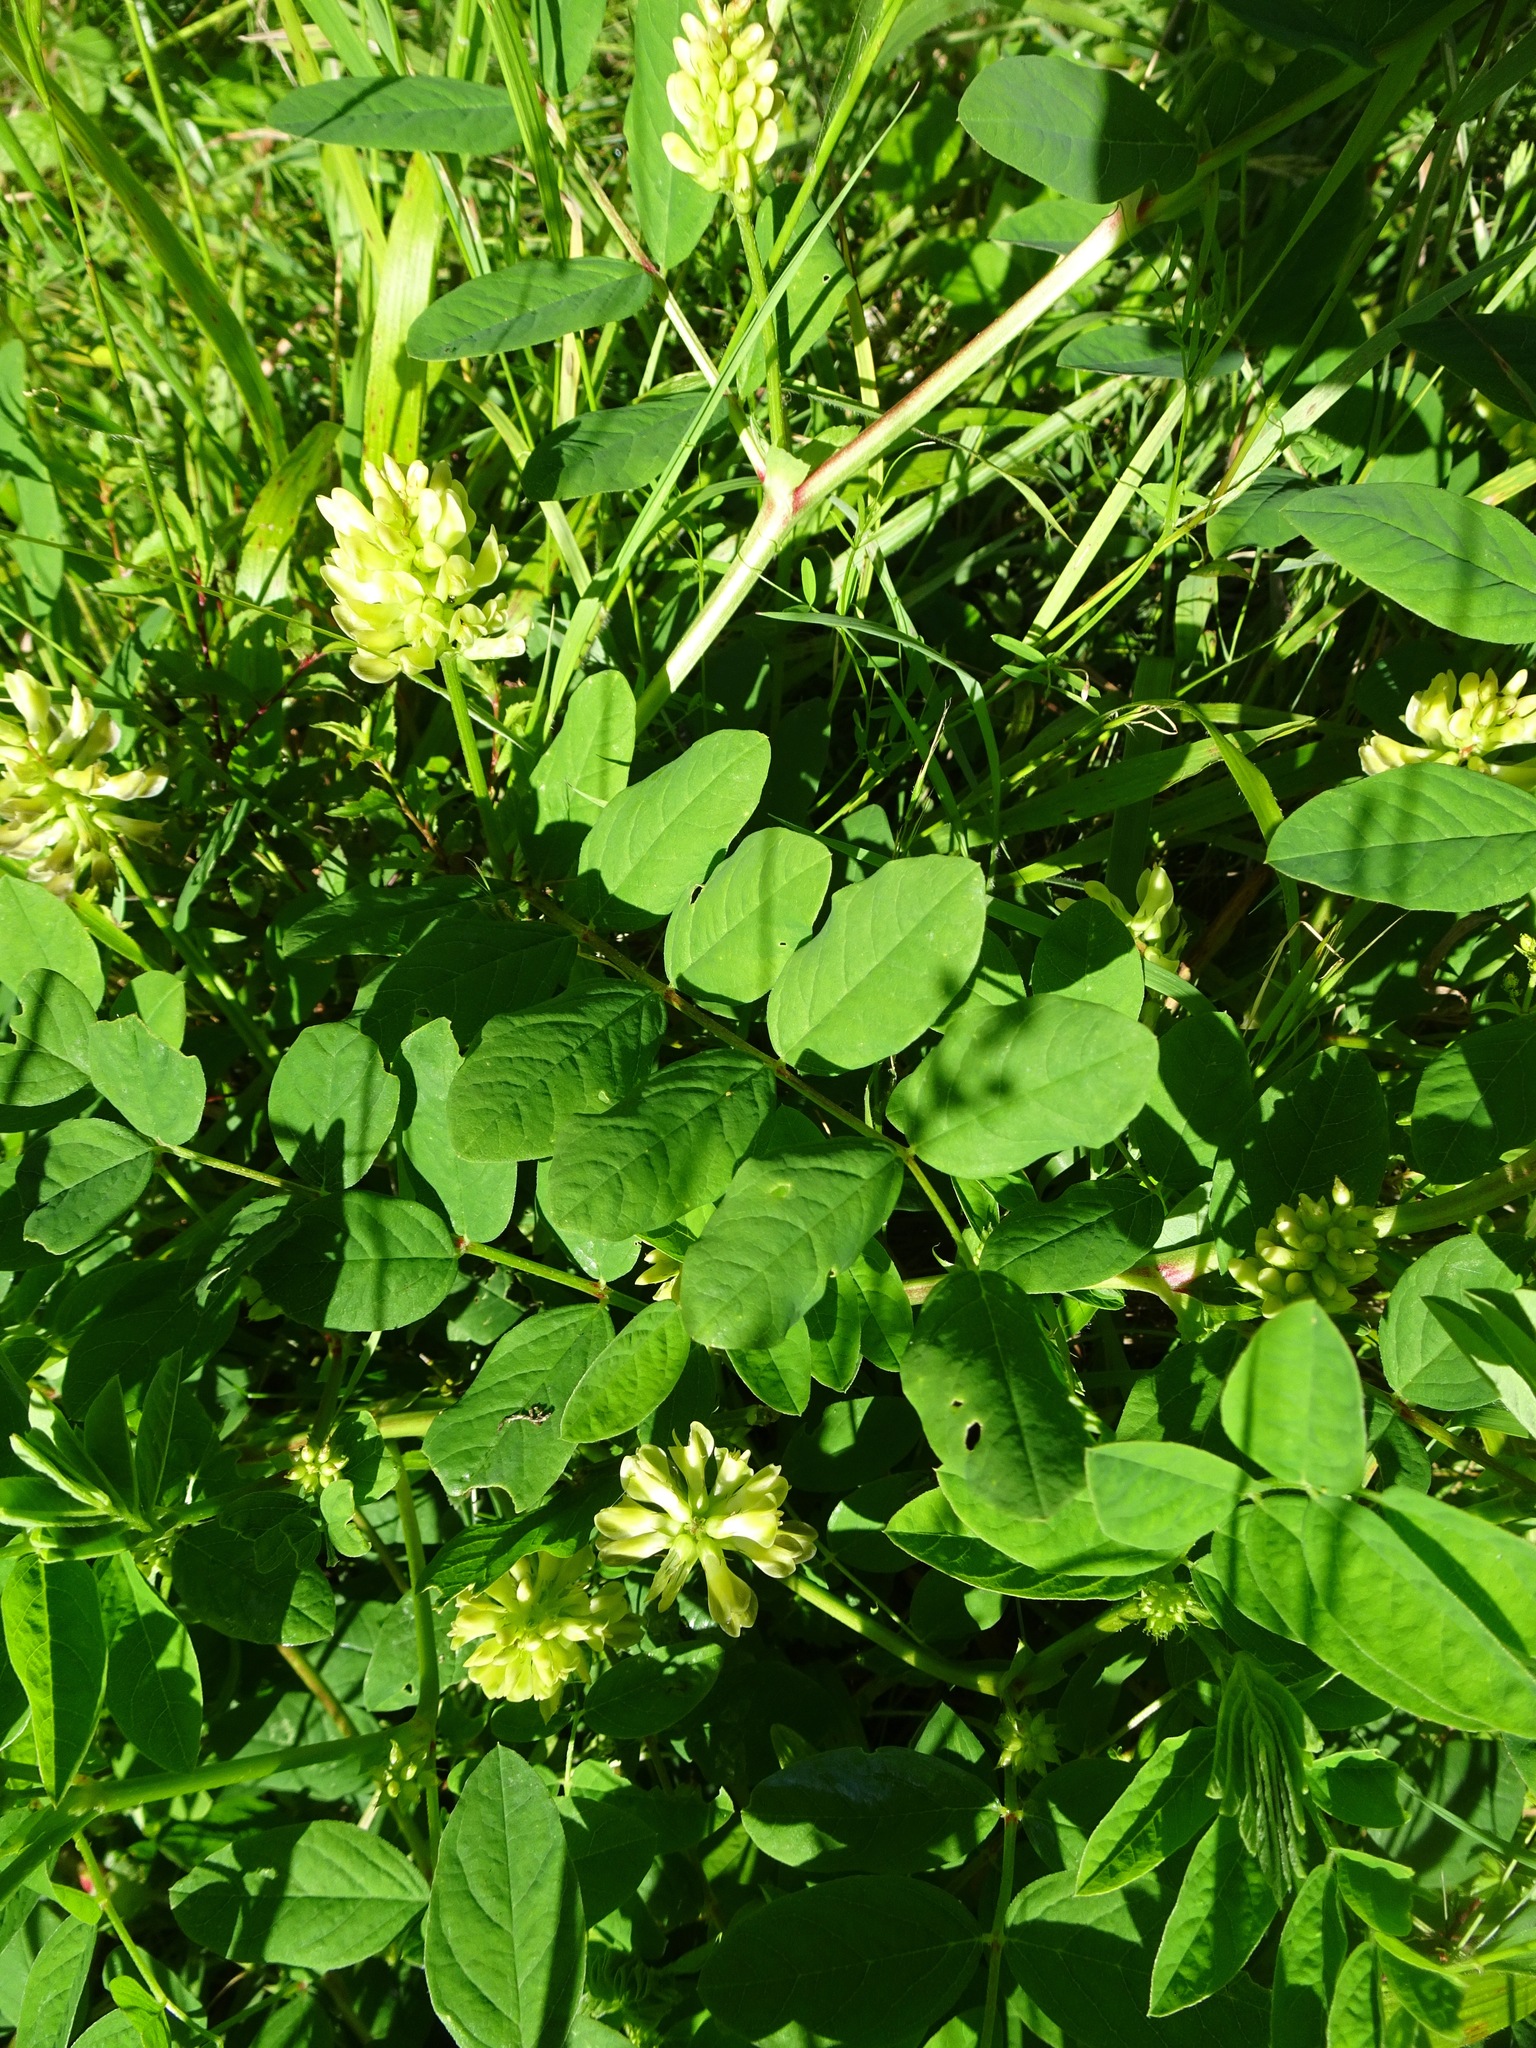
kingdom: Plantae
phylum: Tracheophyta
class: Magnoliopsida
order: Fabales
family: Fabaceae
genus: Astragalus
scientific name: Astragalus glycyphyllos
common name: Wild liquorice
